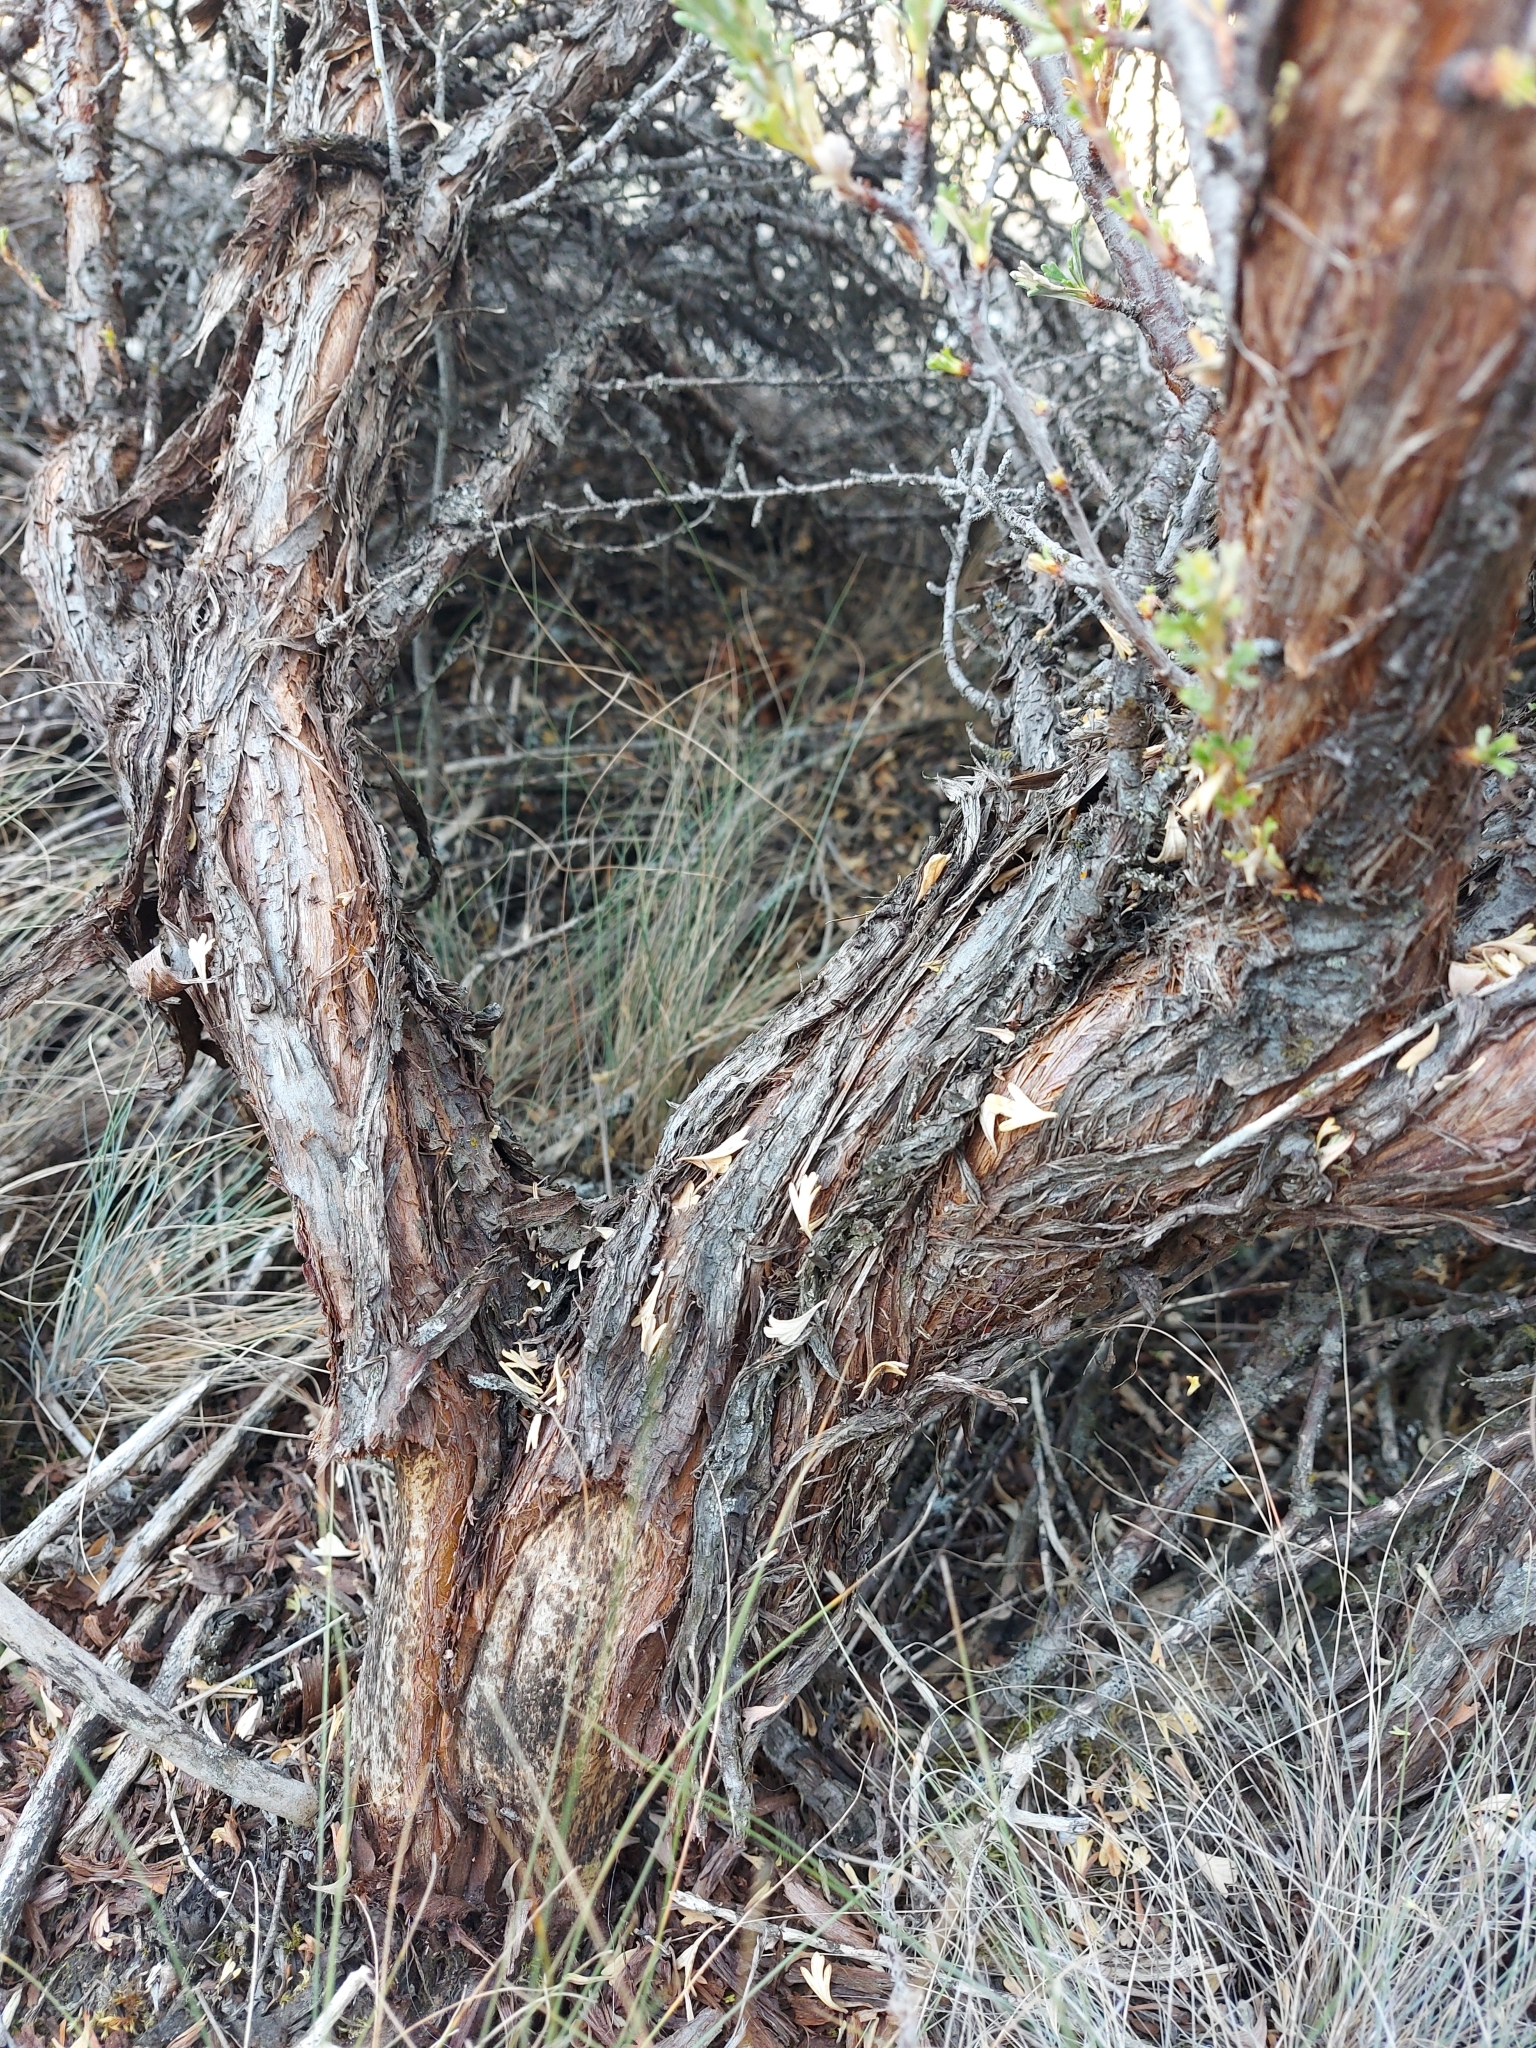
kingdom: Plantae
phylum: Tracheophyta
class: Magnoliopsida
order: Rosales
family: Rosaceae
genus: Purshia
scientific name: Purshia tridentata
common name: Antelope bitterbrush
